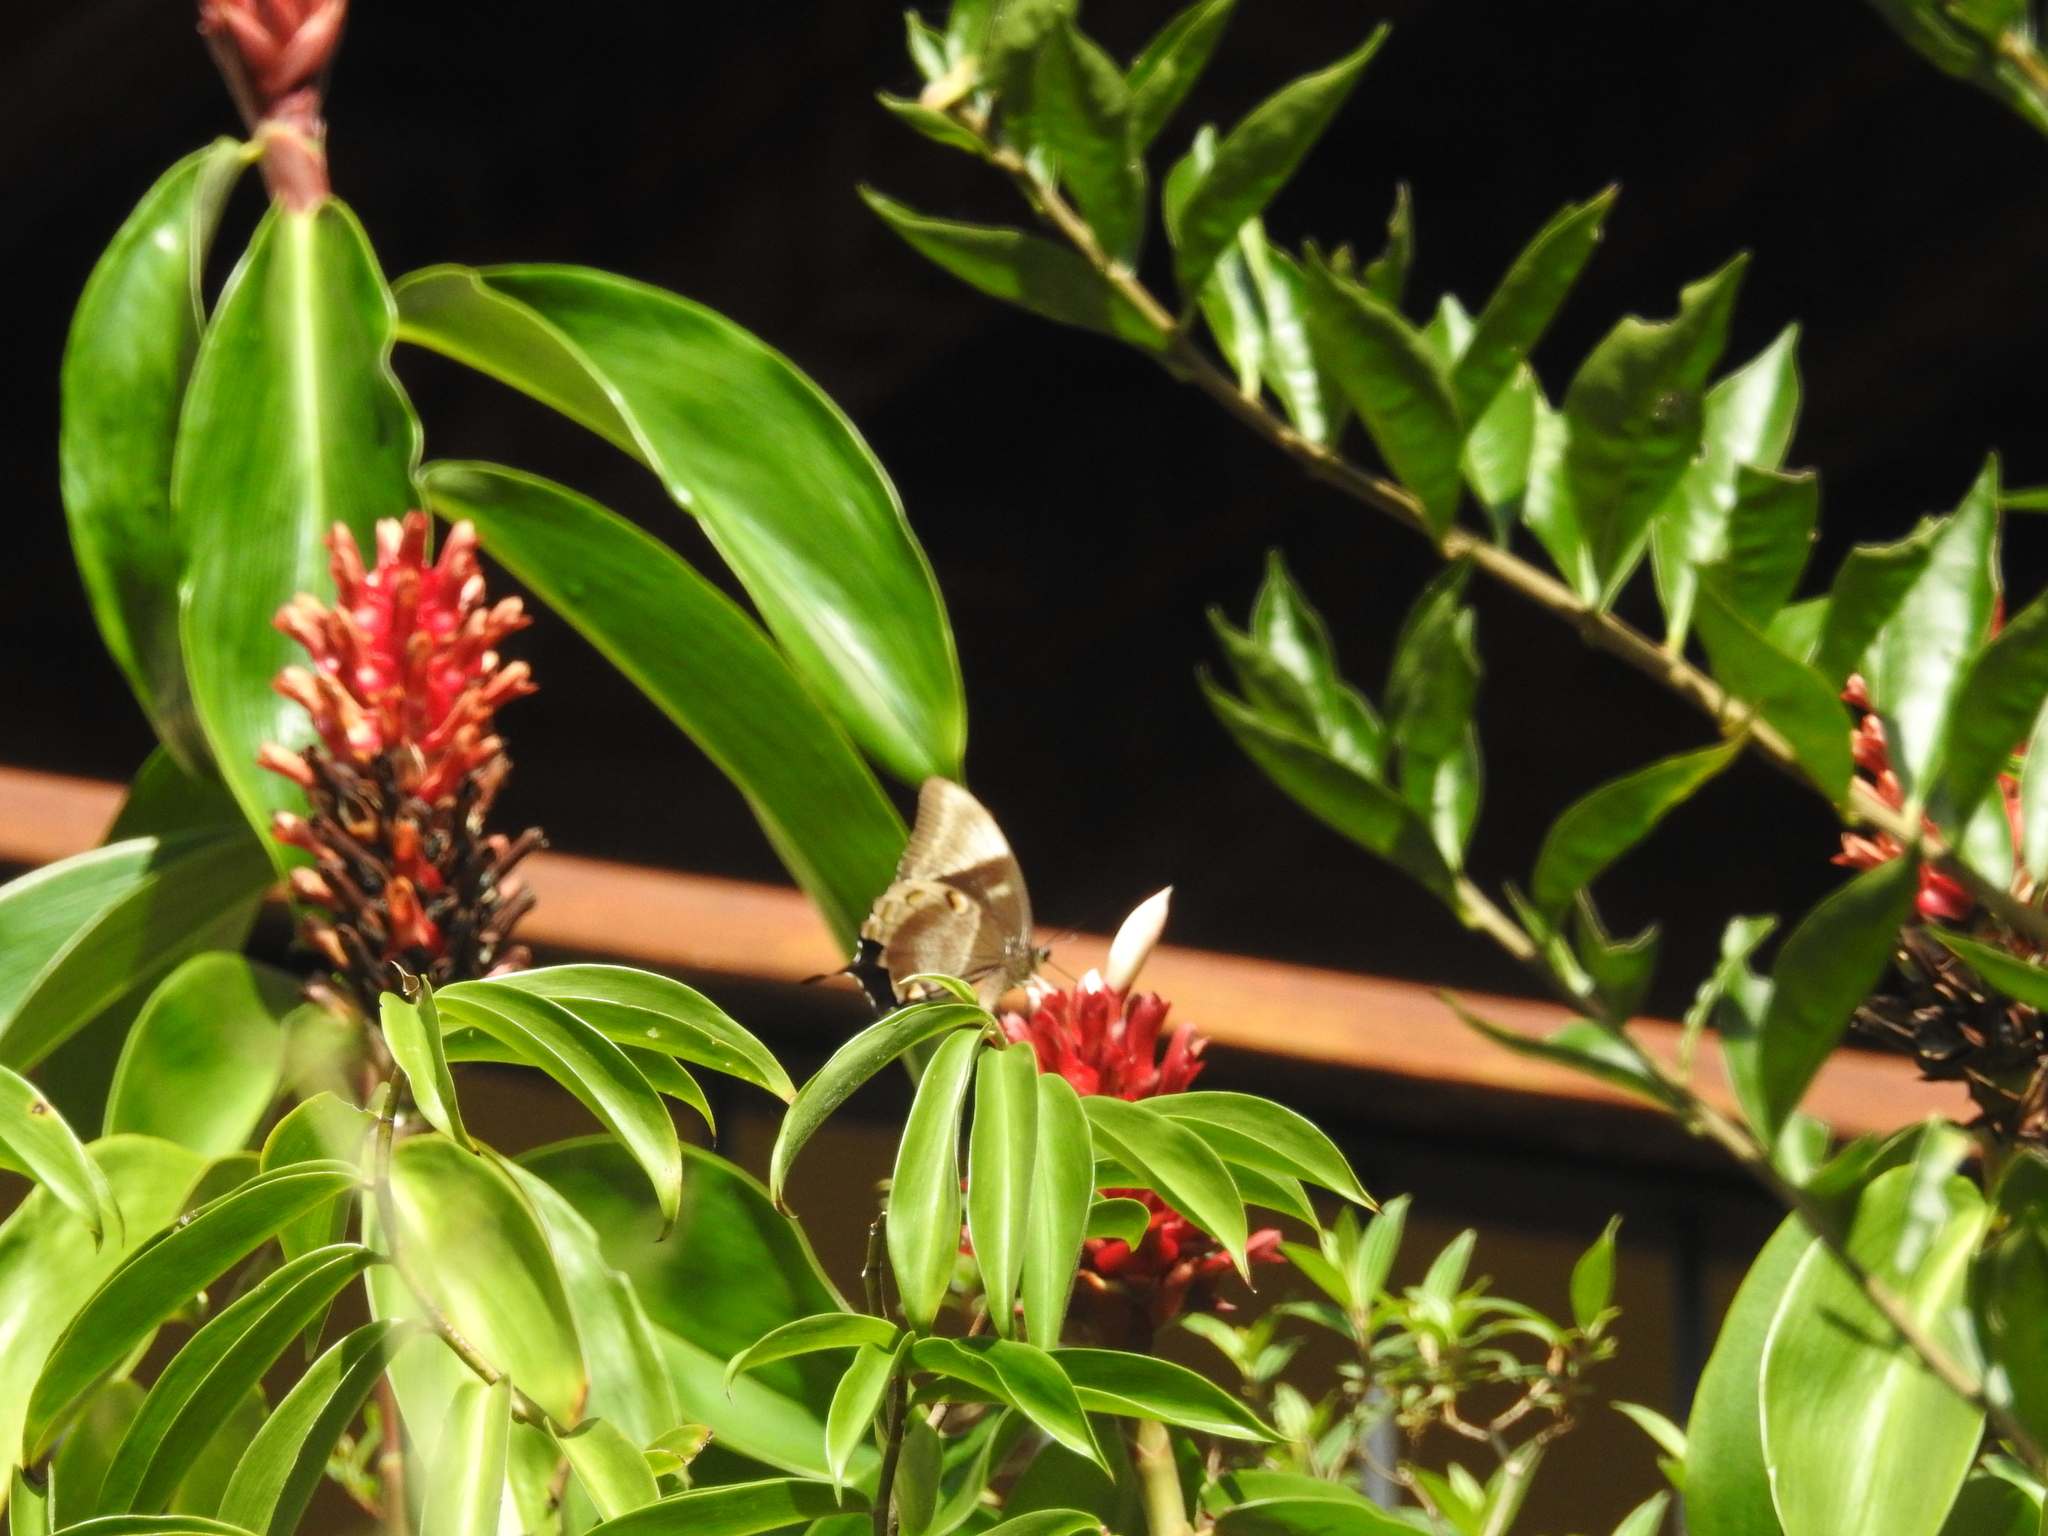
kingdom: Animalia
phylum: Arthropoda
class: Insecta
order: Lepidoptera
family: Papilionidae
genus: Papilio
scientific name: Papilio ulysses
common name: Blue emperor
